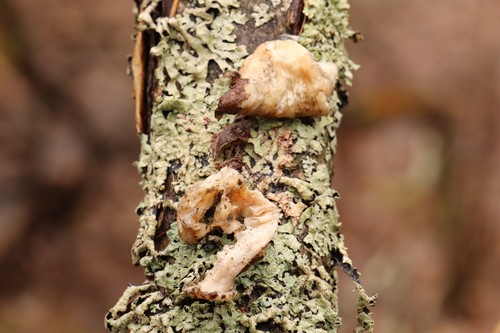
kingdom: Fungi
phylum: Basidiomycota
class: Agaricomycetes
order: Agaricales
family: Pleurotaceae
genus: Pleurotus
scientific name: Pleurotus pulmonarius
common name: Pale oyster
